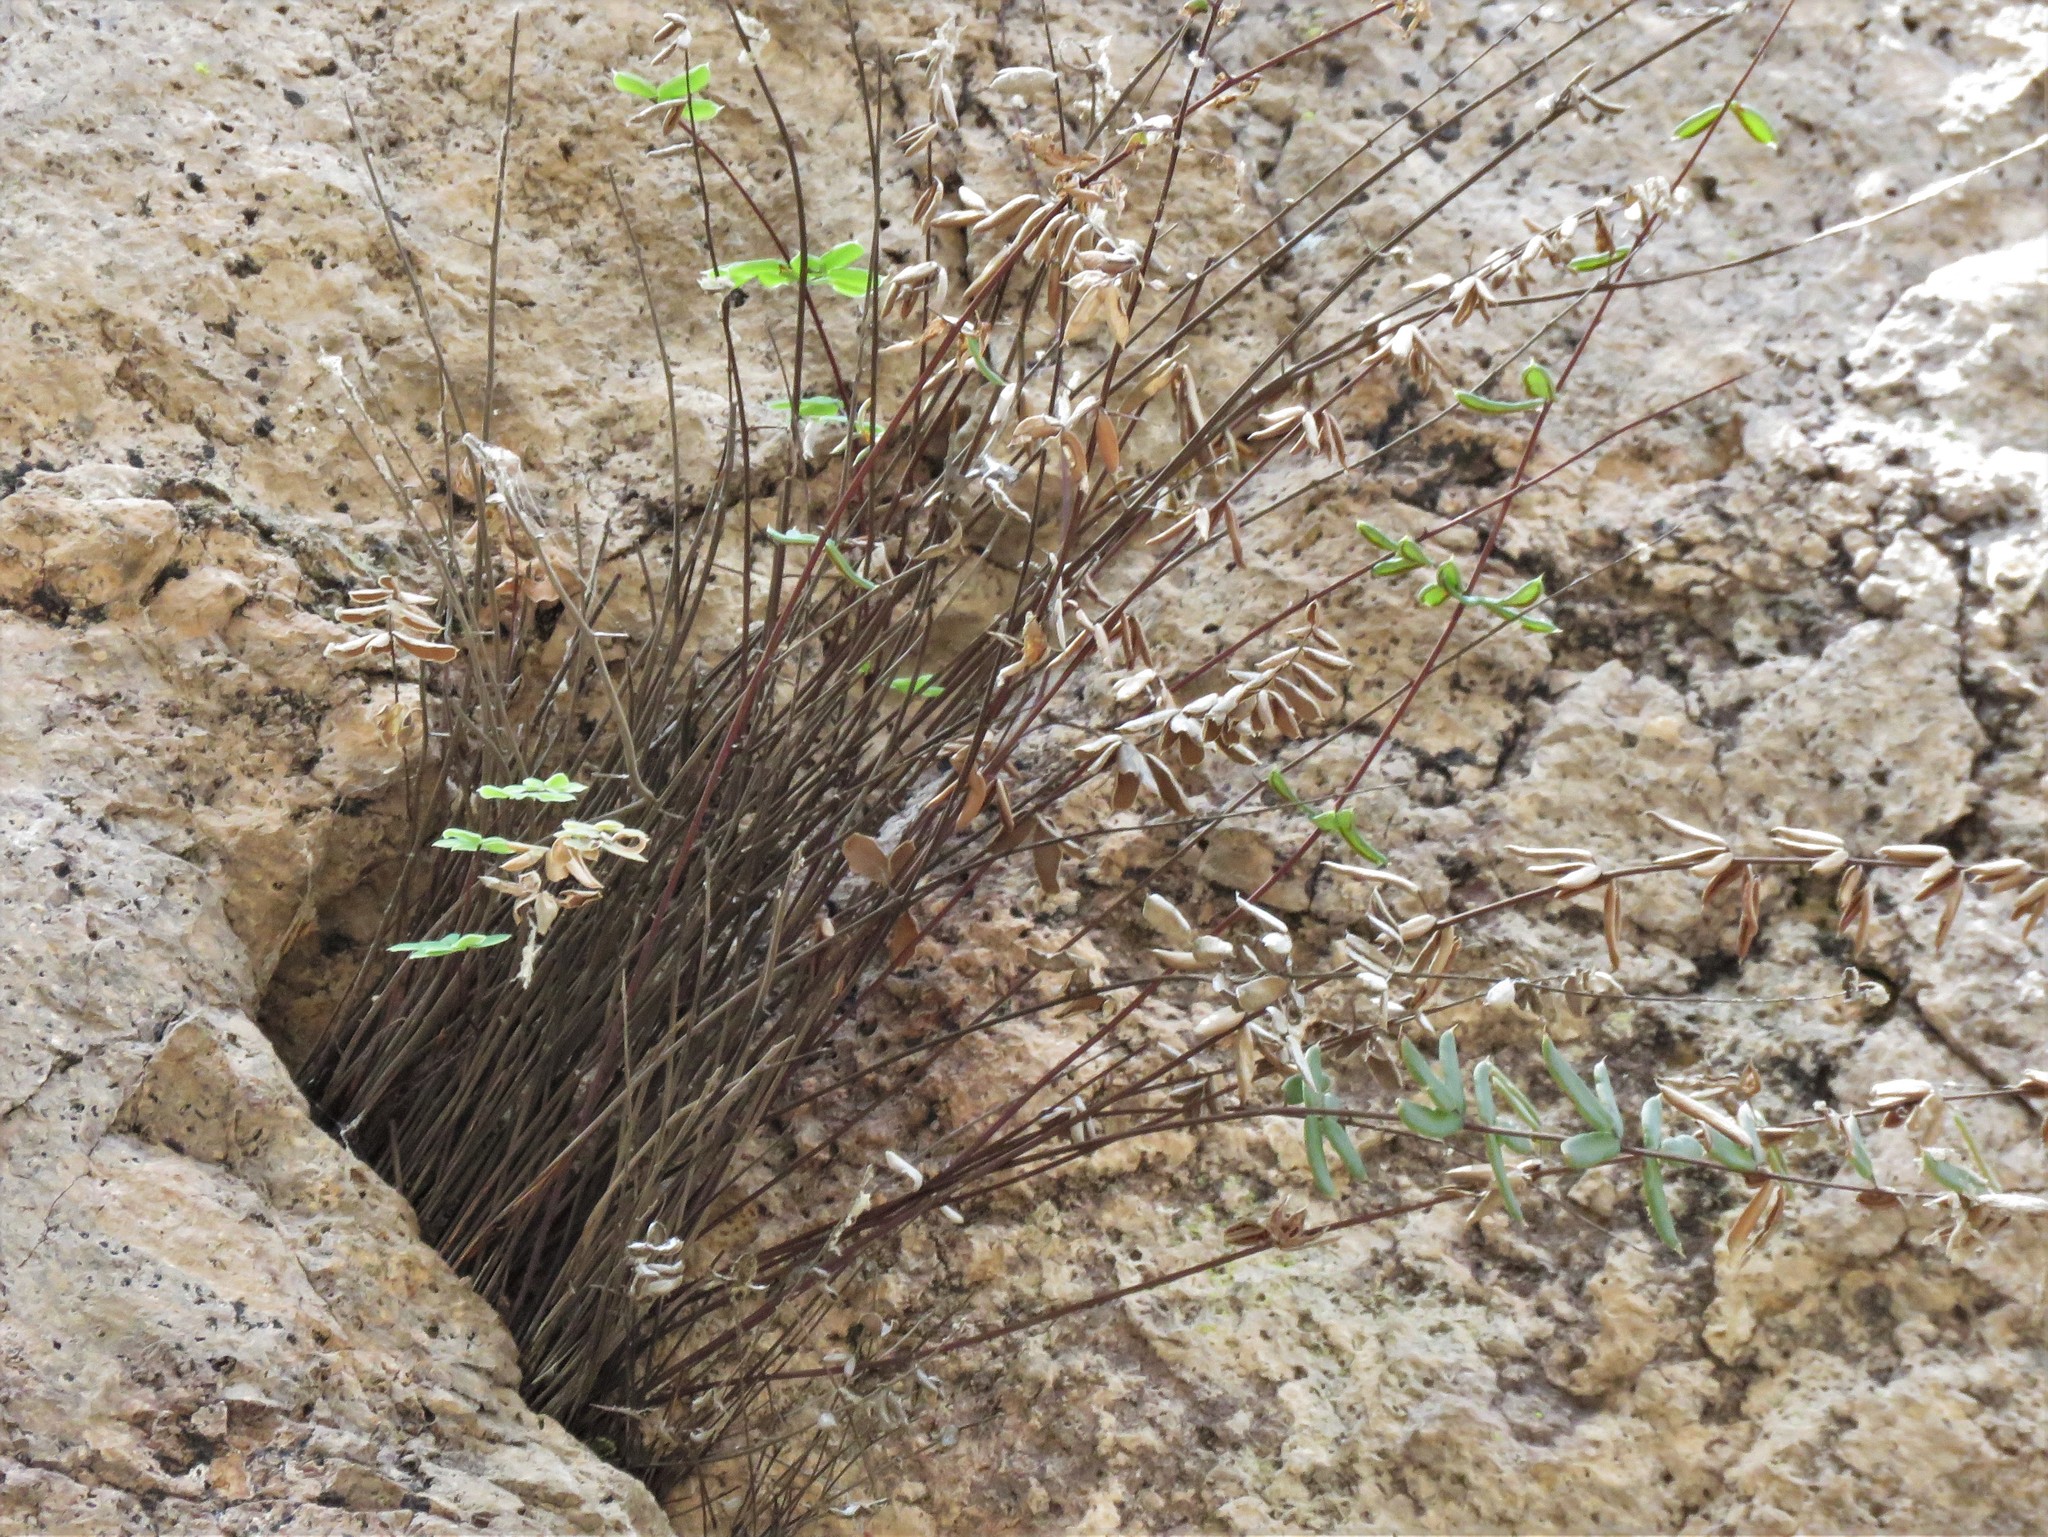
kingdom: Plantae
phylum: Tracheophyta
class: Polypodiopsida
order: Polypodiales
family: Pteridaceae
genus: Pellaea
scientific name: Pellaea wrightiana
